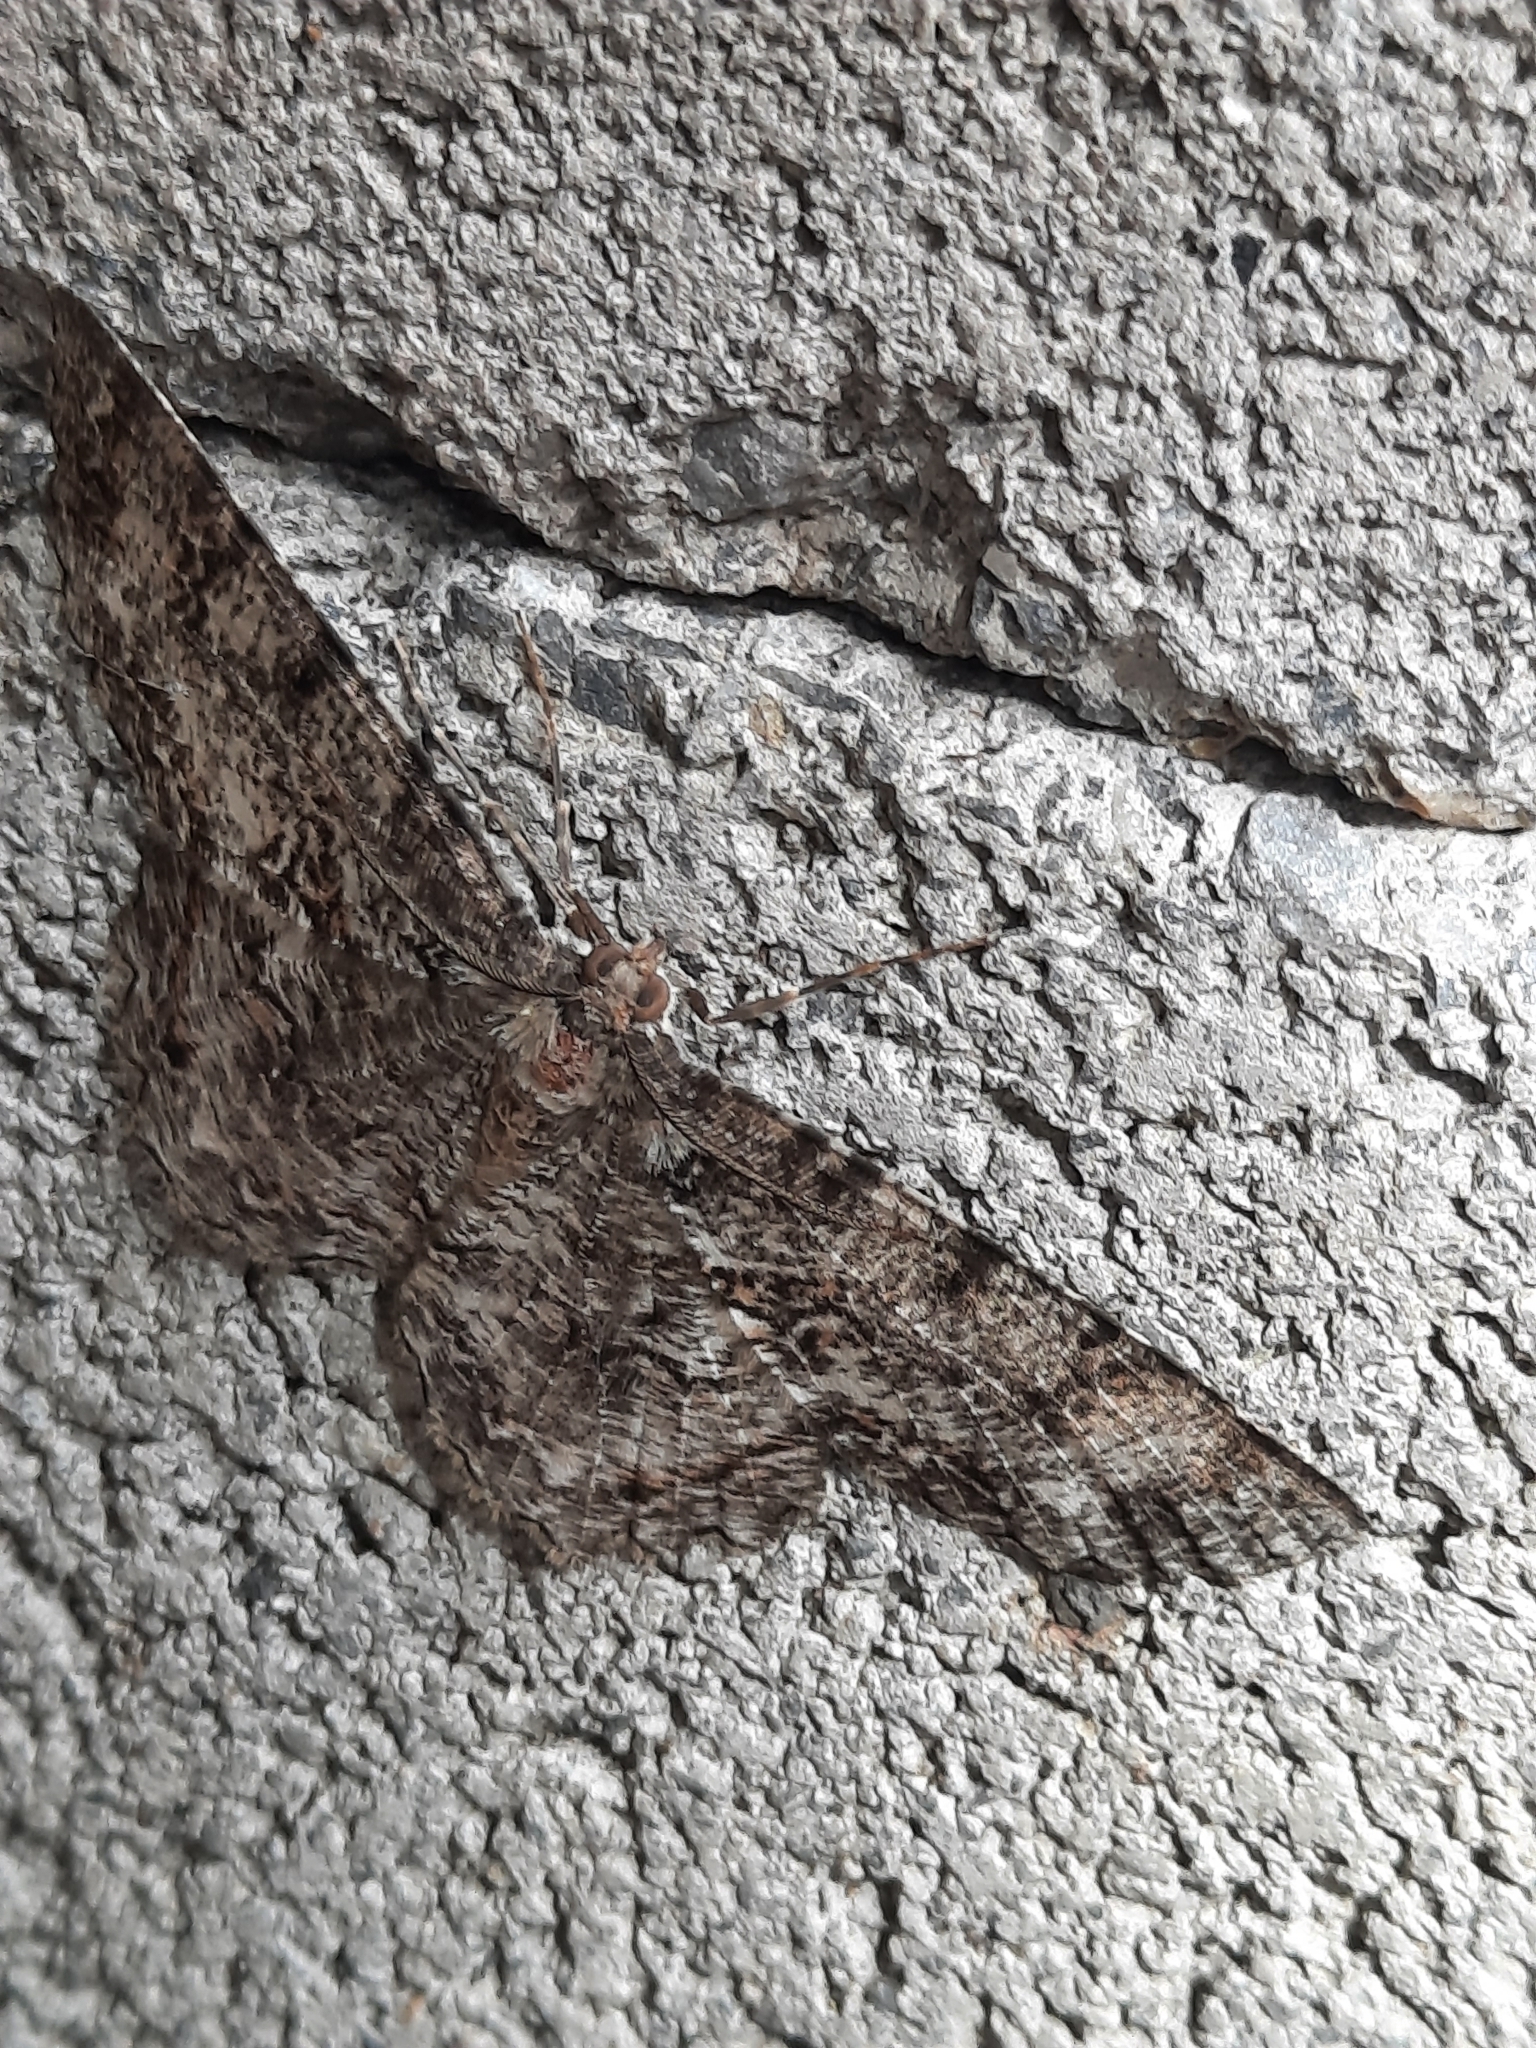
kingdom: Animalia
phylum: Arthropoda
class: Insecta
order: Lepidoptera
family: Geometridae
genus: Epimecis
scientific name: Epimecis hortaria
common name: Tulip-tree beauty
